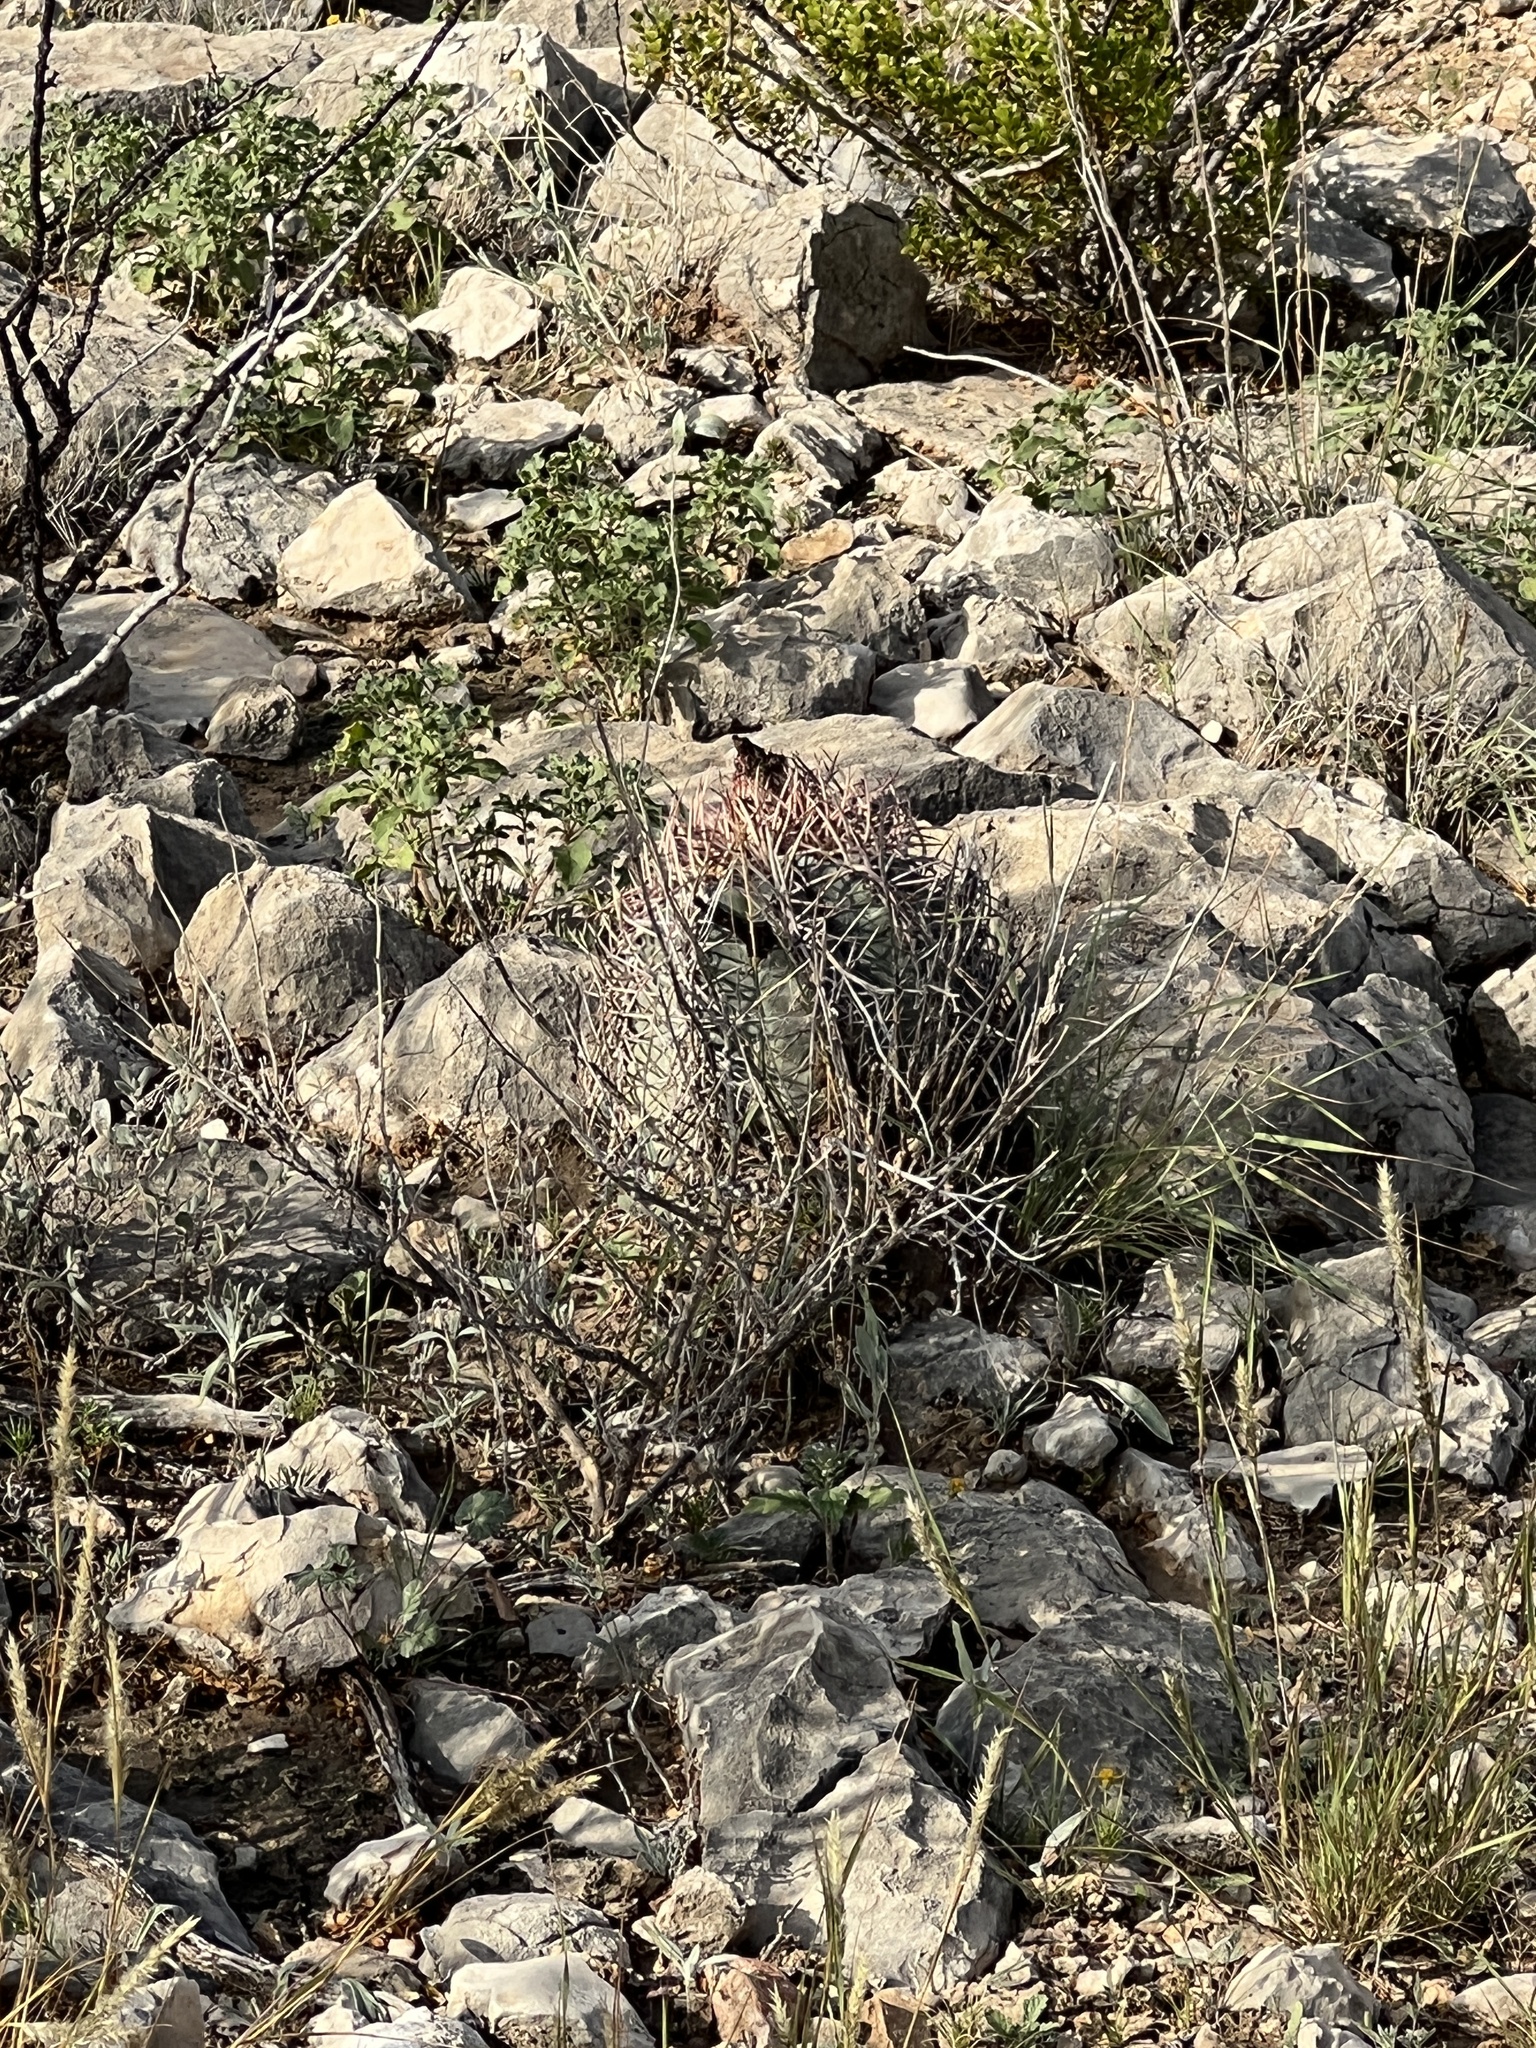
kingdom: Plantae
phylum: Tracheophyta
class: Magnoliopsida
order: Caryophyllales
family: Cactaceae
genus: Echinocactus
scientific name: Echinocactus horizonthalonius
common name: Devilshead
